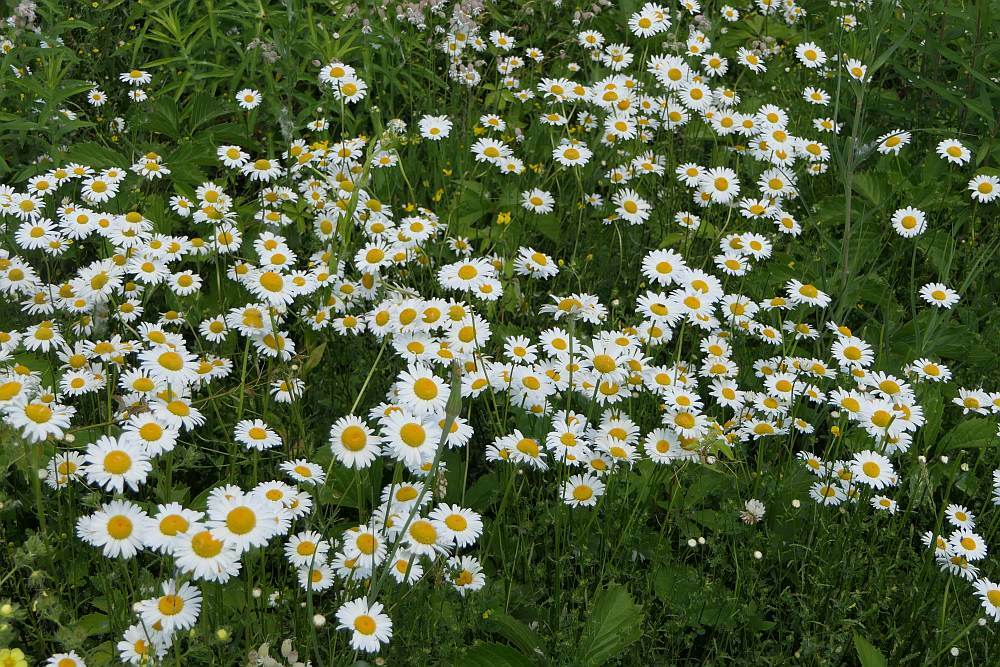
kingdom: Plantae
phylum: Tracheophyta
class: Magnoliopsida
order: Asterales
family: Asteraceae
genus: Leucanthemum
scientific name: Leucanthemum vulgare
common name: Oxeye daisy
